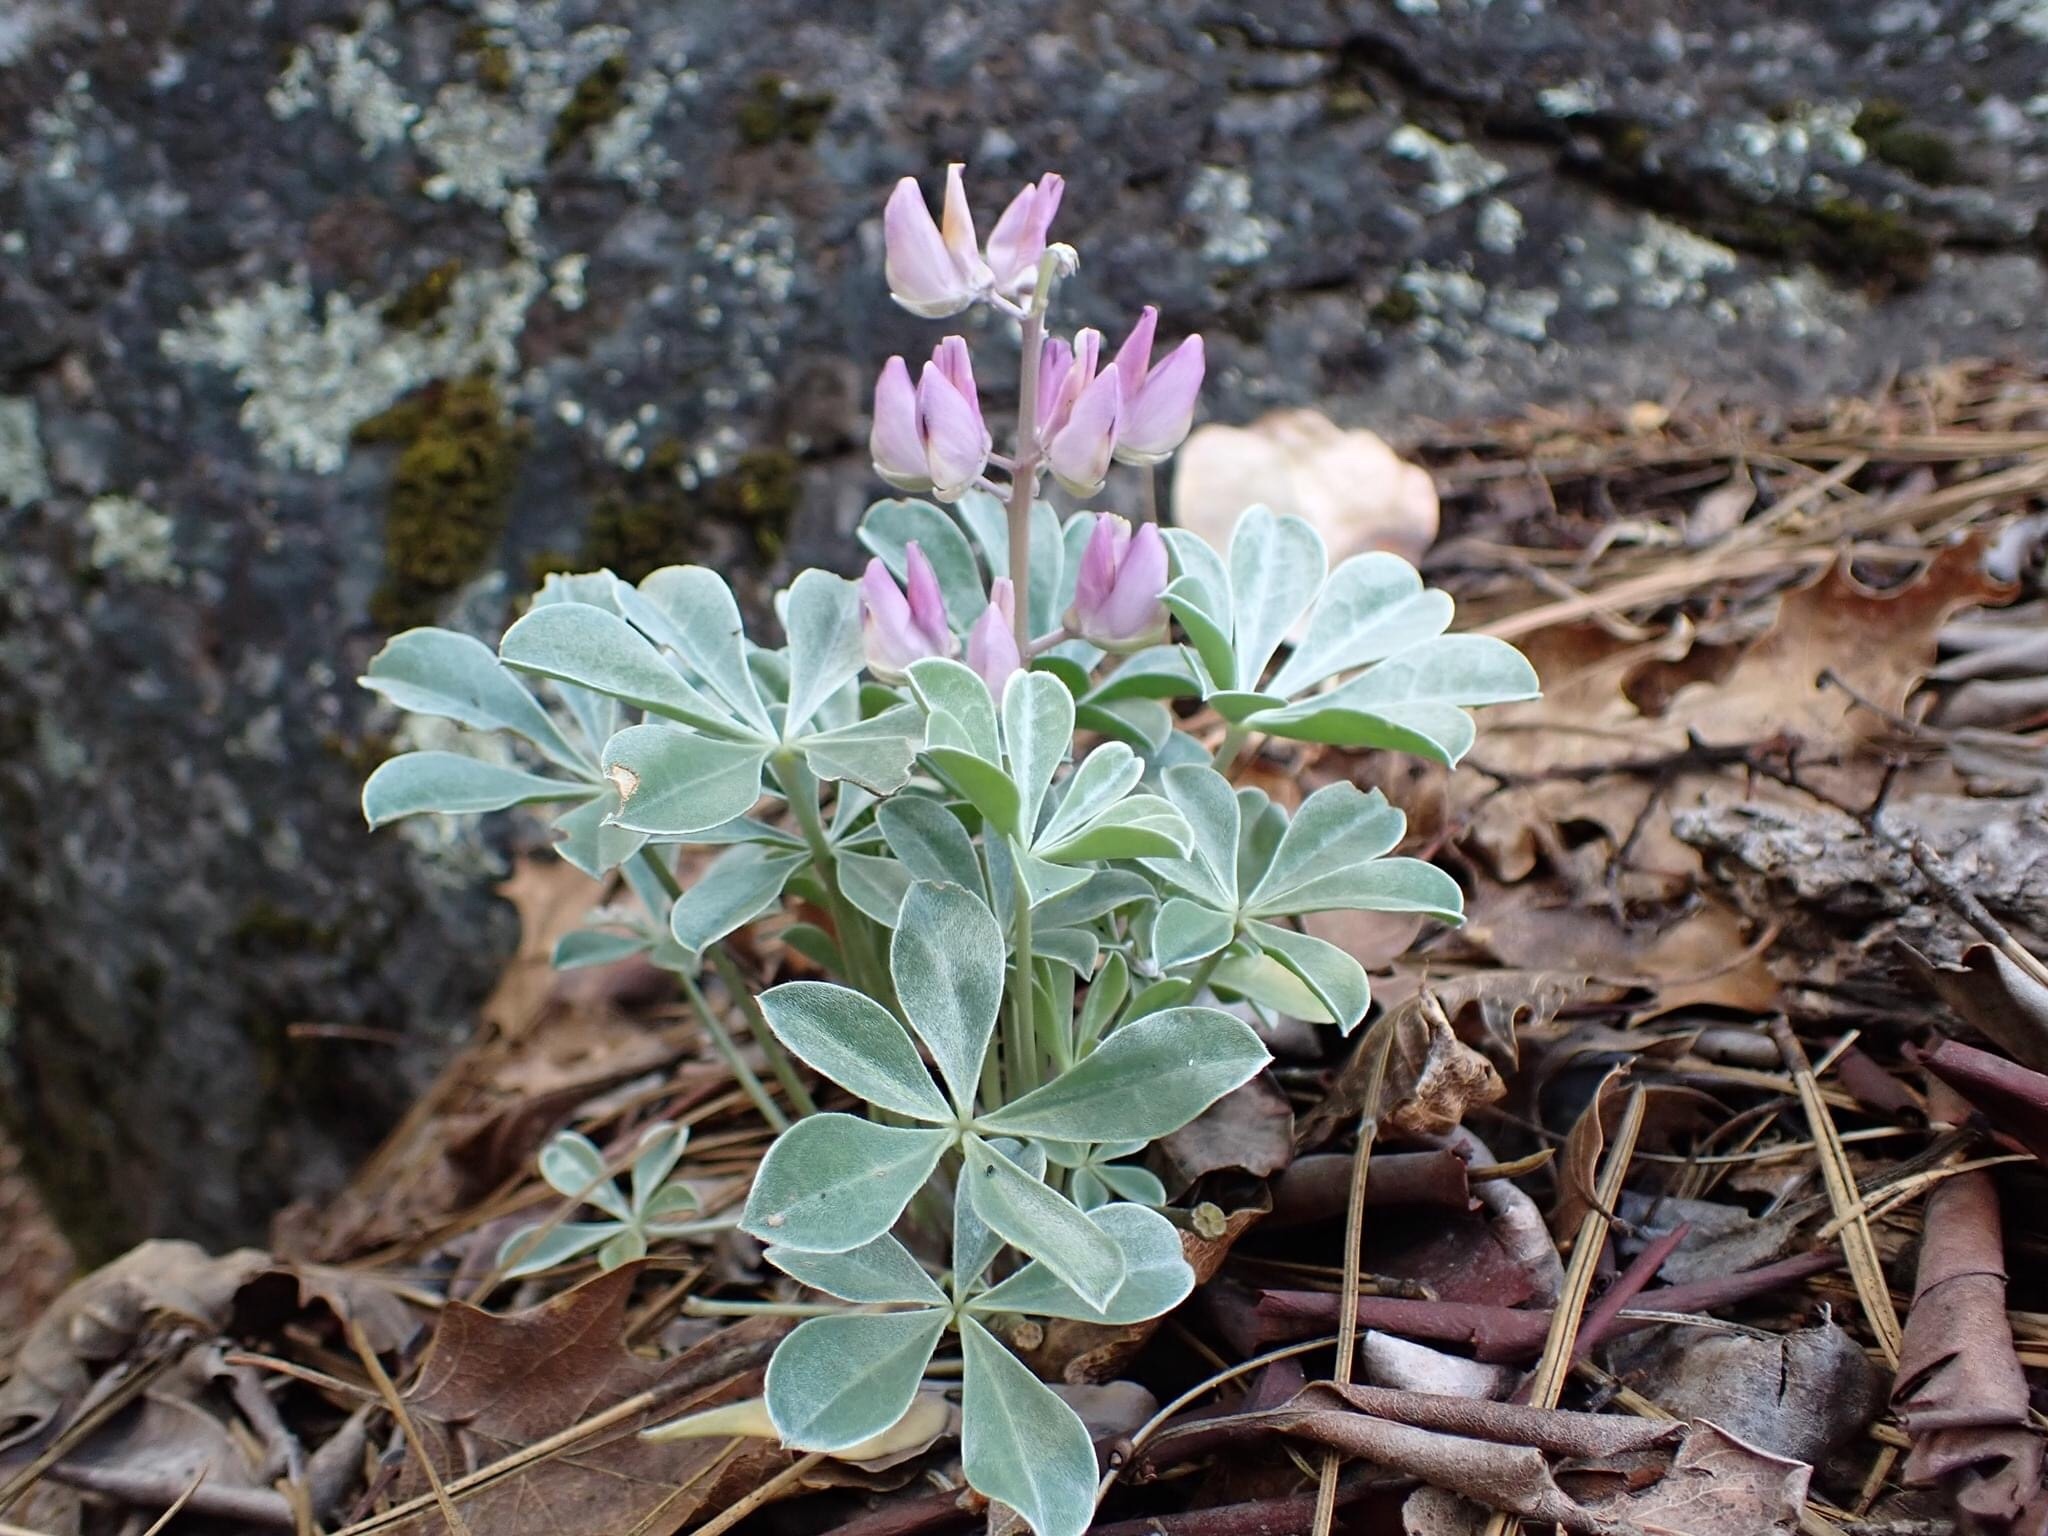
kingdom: Plantae
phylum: Tracheophyta
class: Magnoliopsida
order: Fabales
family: Fabaceae
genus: Lupinus
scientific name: Lupinus sericatus
